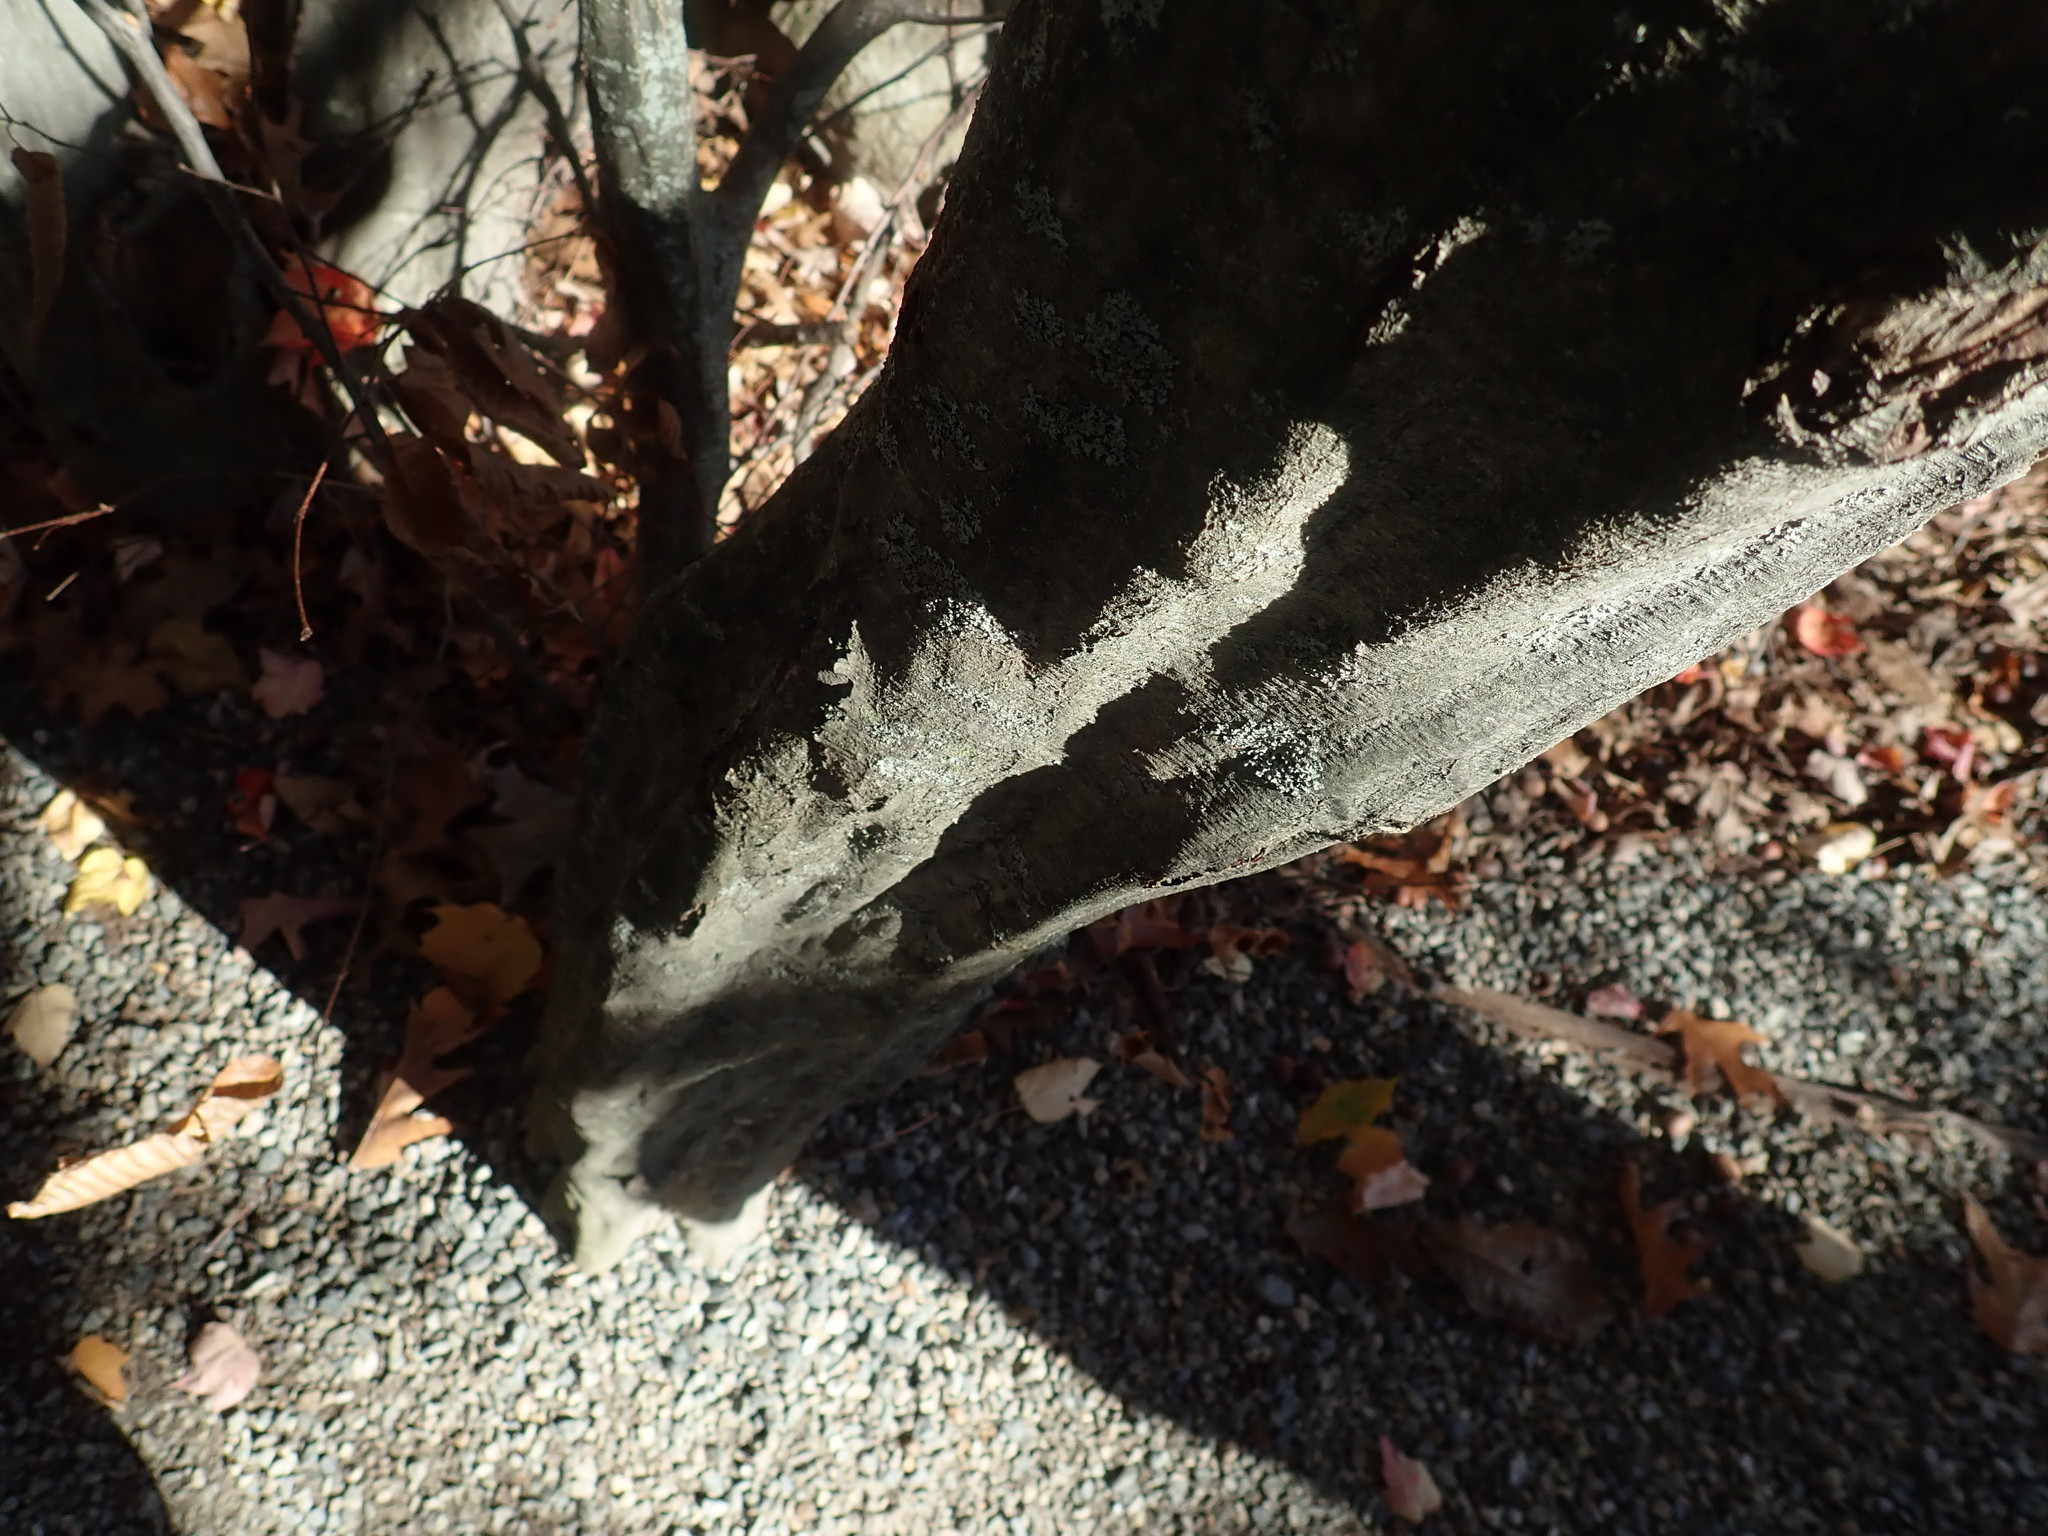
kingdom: Plantae
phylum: Tracheophyta
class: Magnoliopsida
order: Fagales
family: Betulaceae
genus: Carpinus
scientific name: Carpinus caroliniana
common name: American hornbeam
